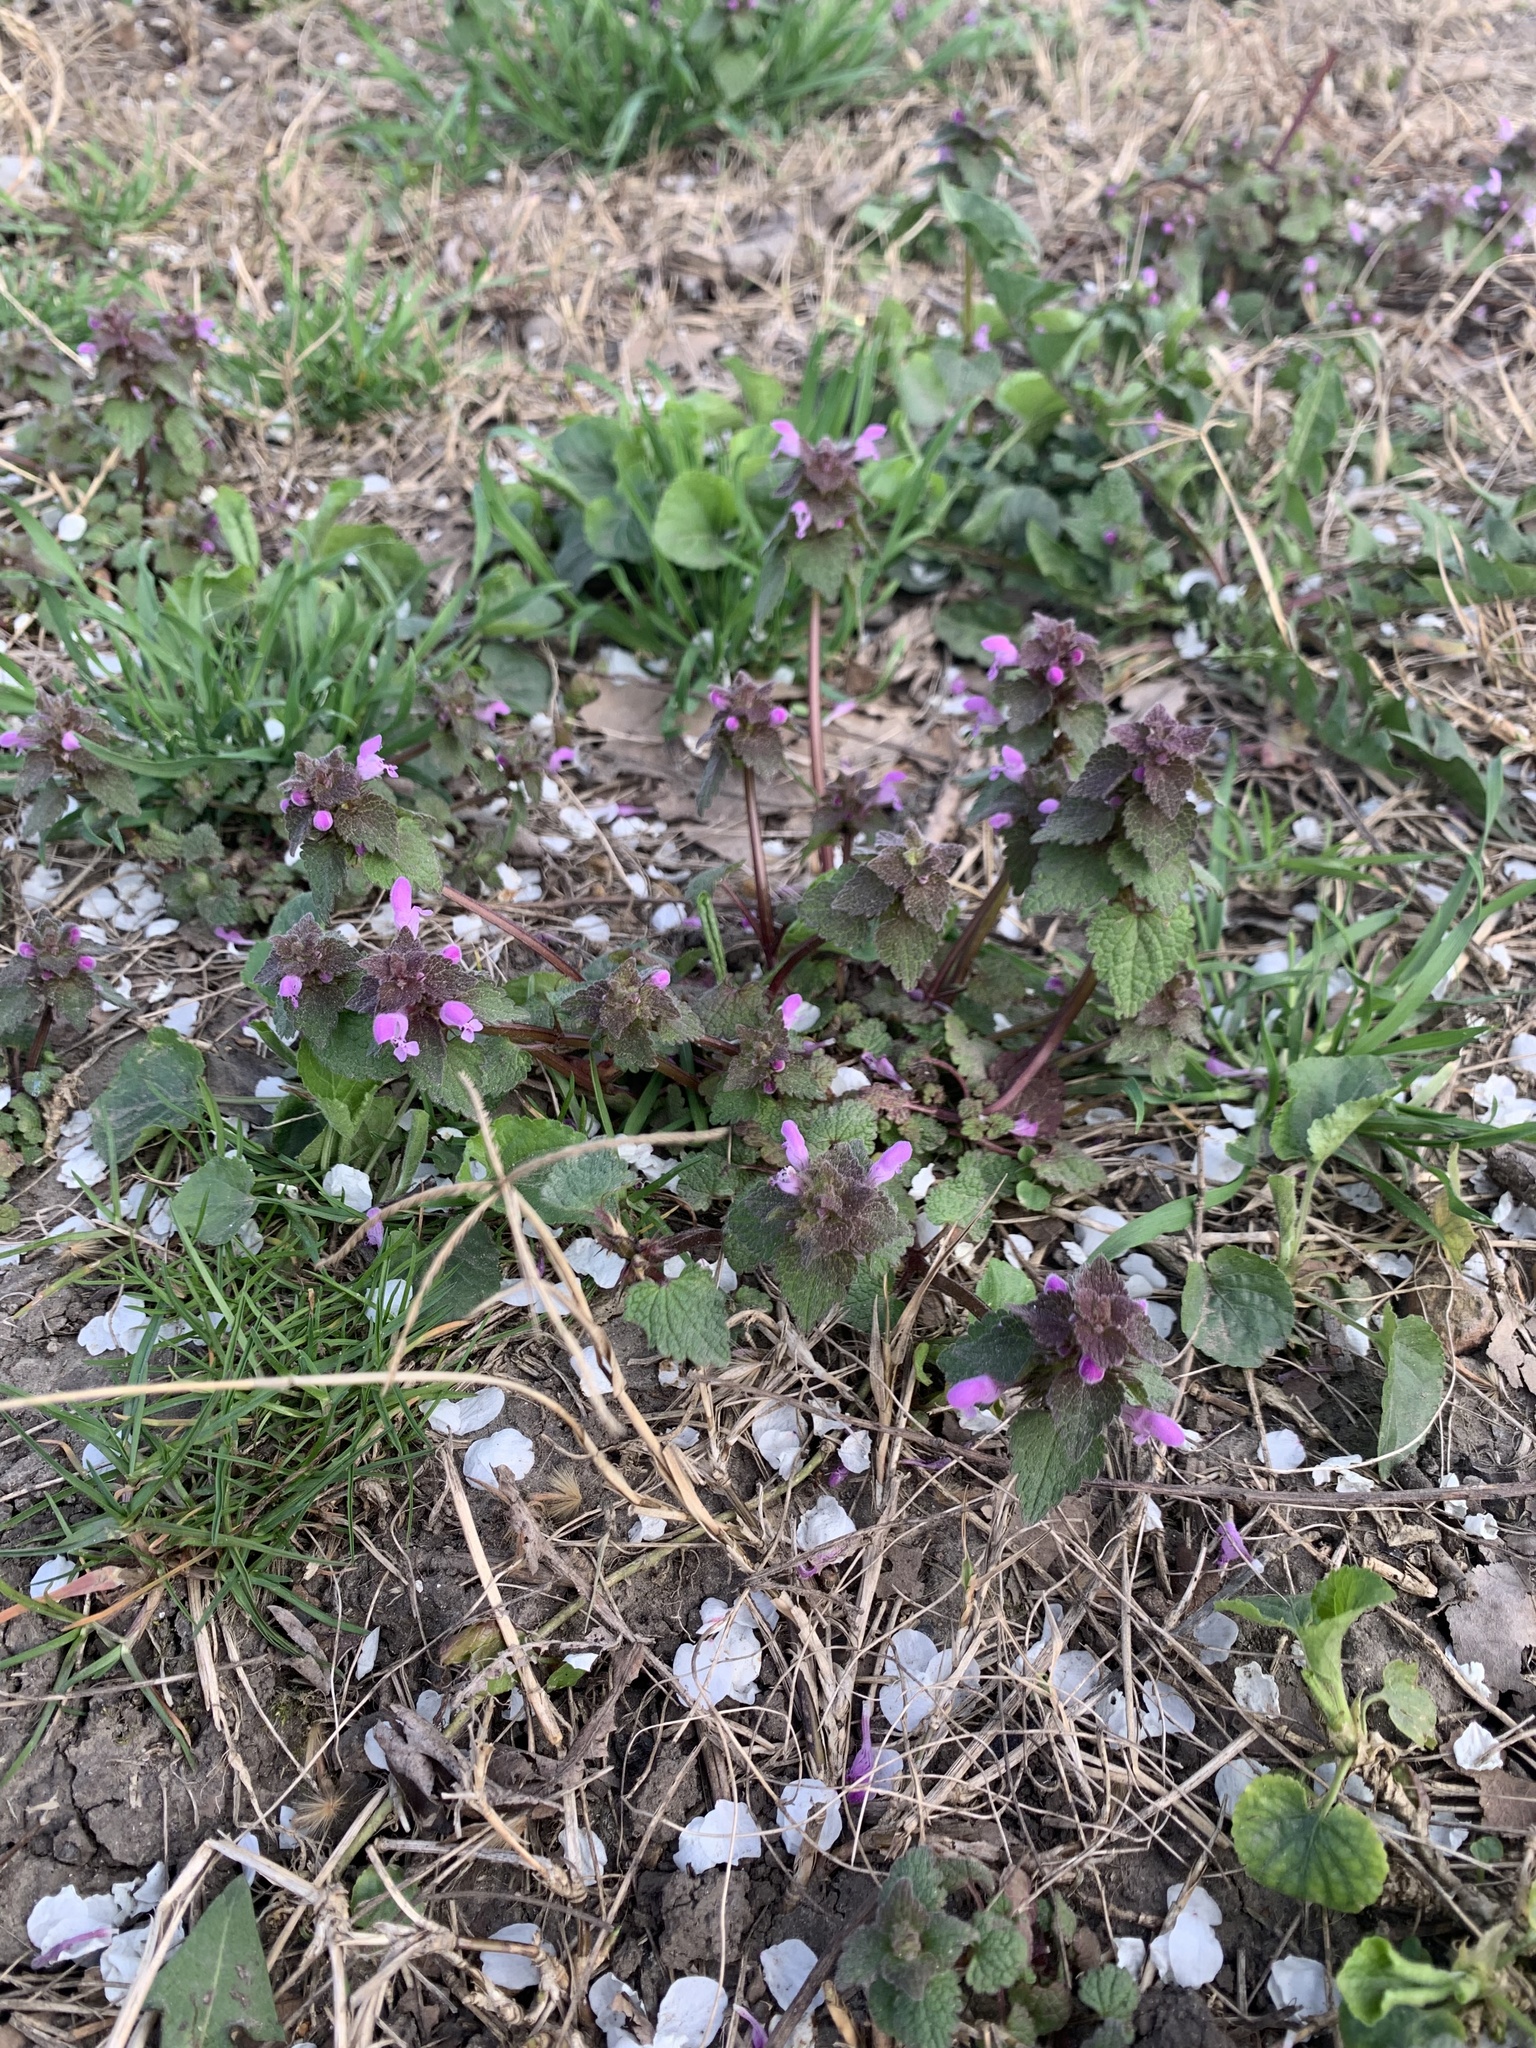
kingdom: Plantae
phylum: Tracheophyta
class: Magnoliopsida
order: Lamiales
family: Lamiaceae
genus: Lamium
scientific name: Lamium purpureum
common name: Red dead-nettle
